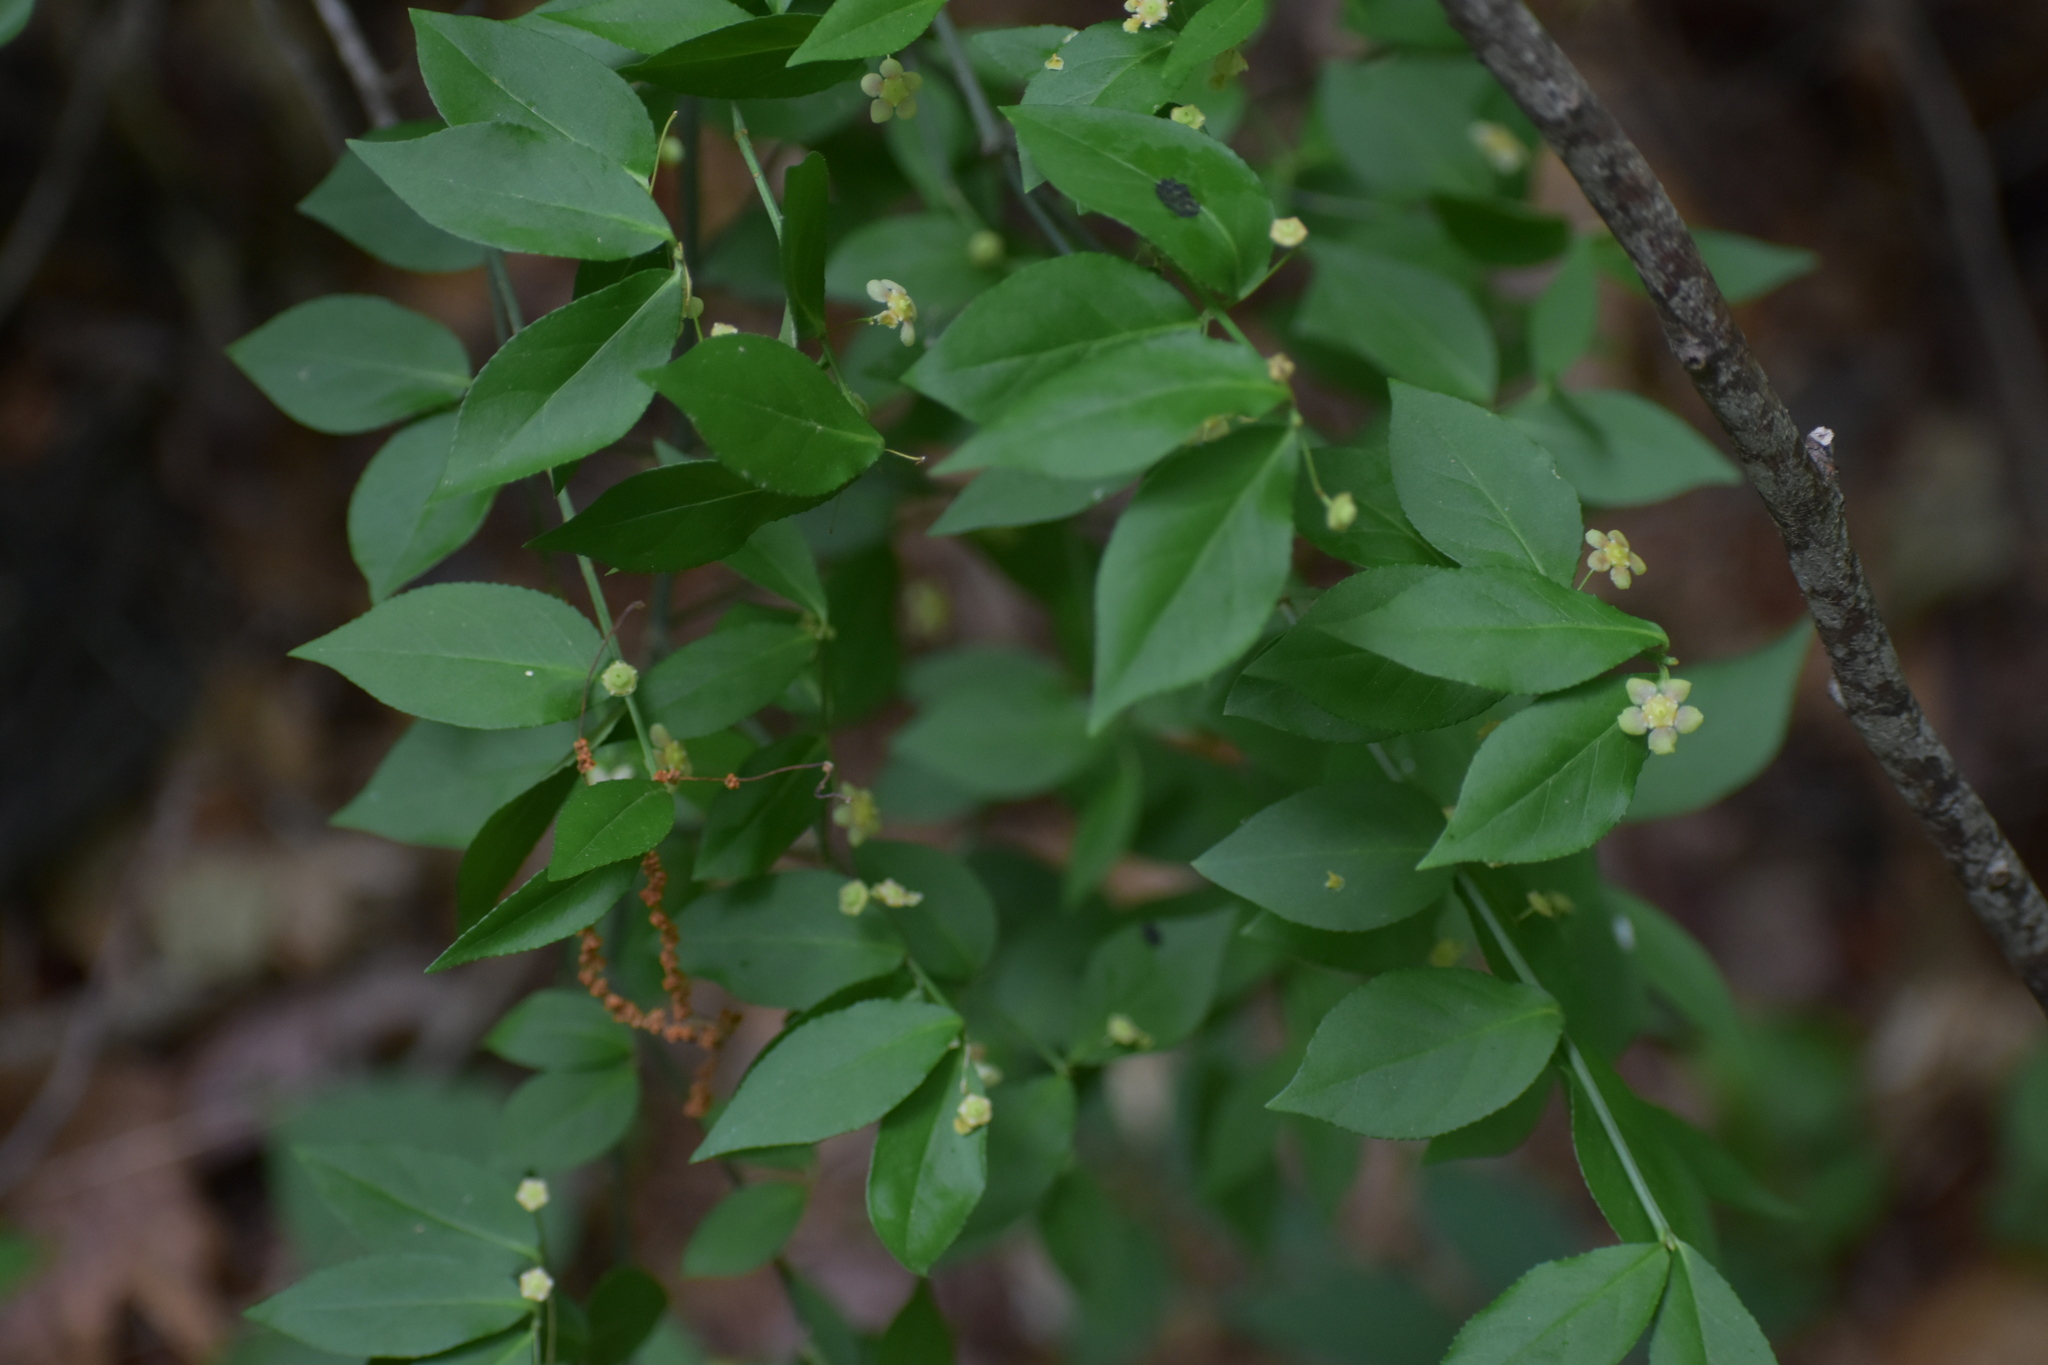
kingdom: Plantae
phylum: Tracheophyta
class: Magnoliopsida
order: Celastrales
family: Celastraceae
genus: Euonymus
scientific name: Euonymus americanus
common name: Bursting-heart
